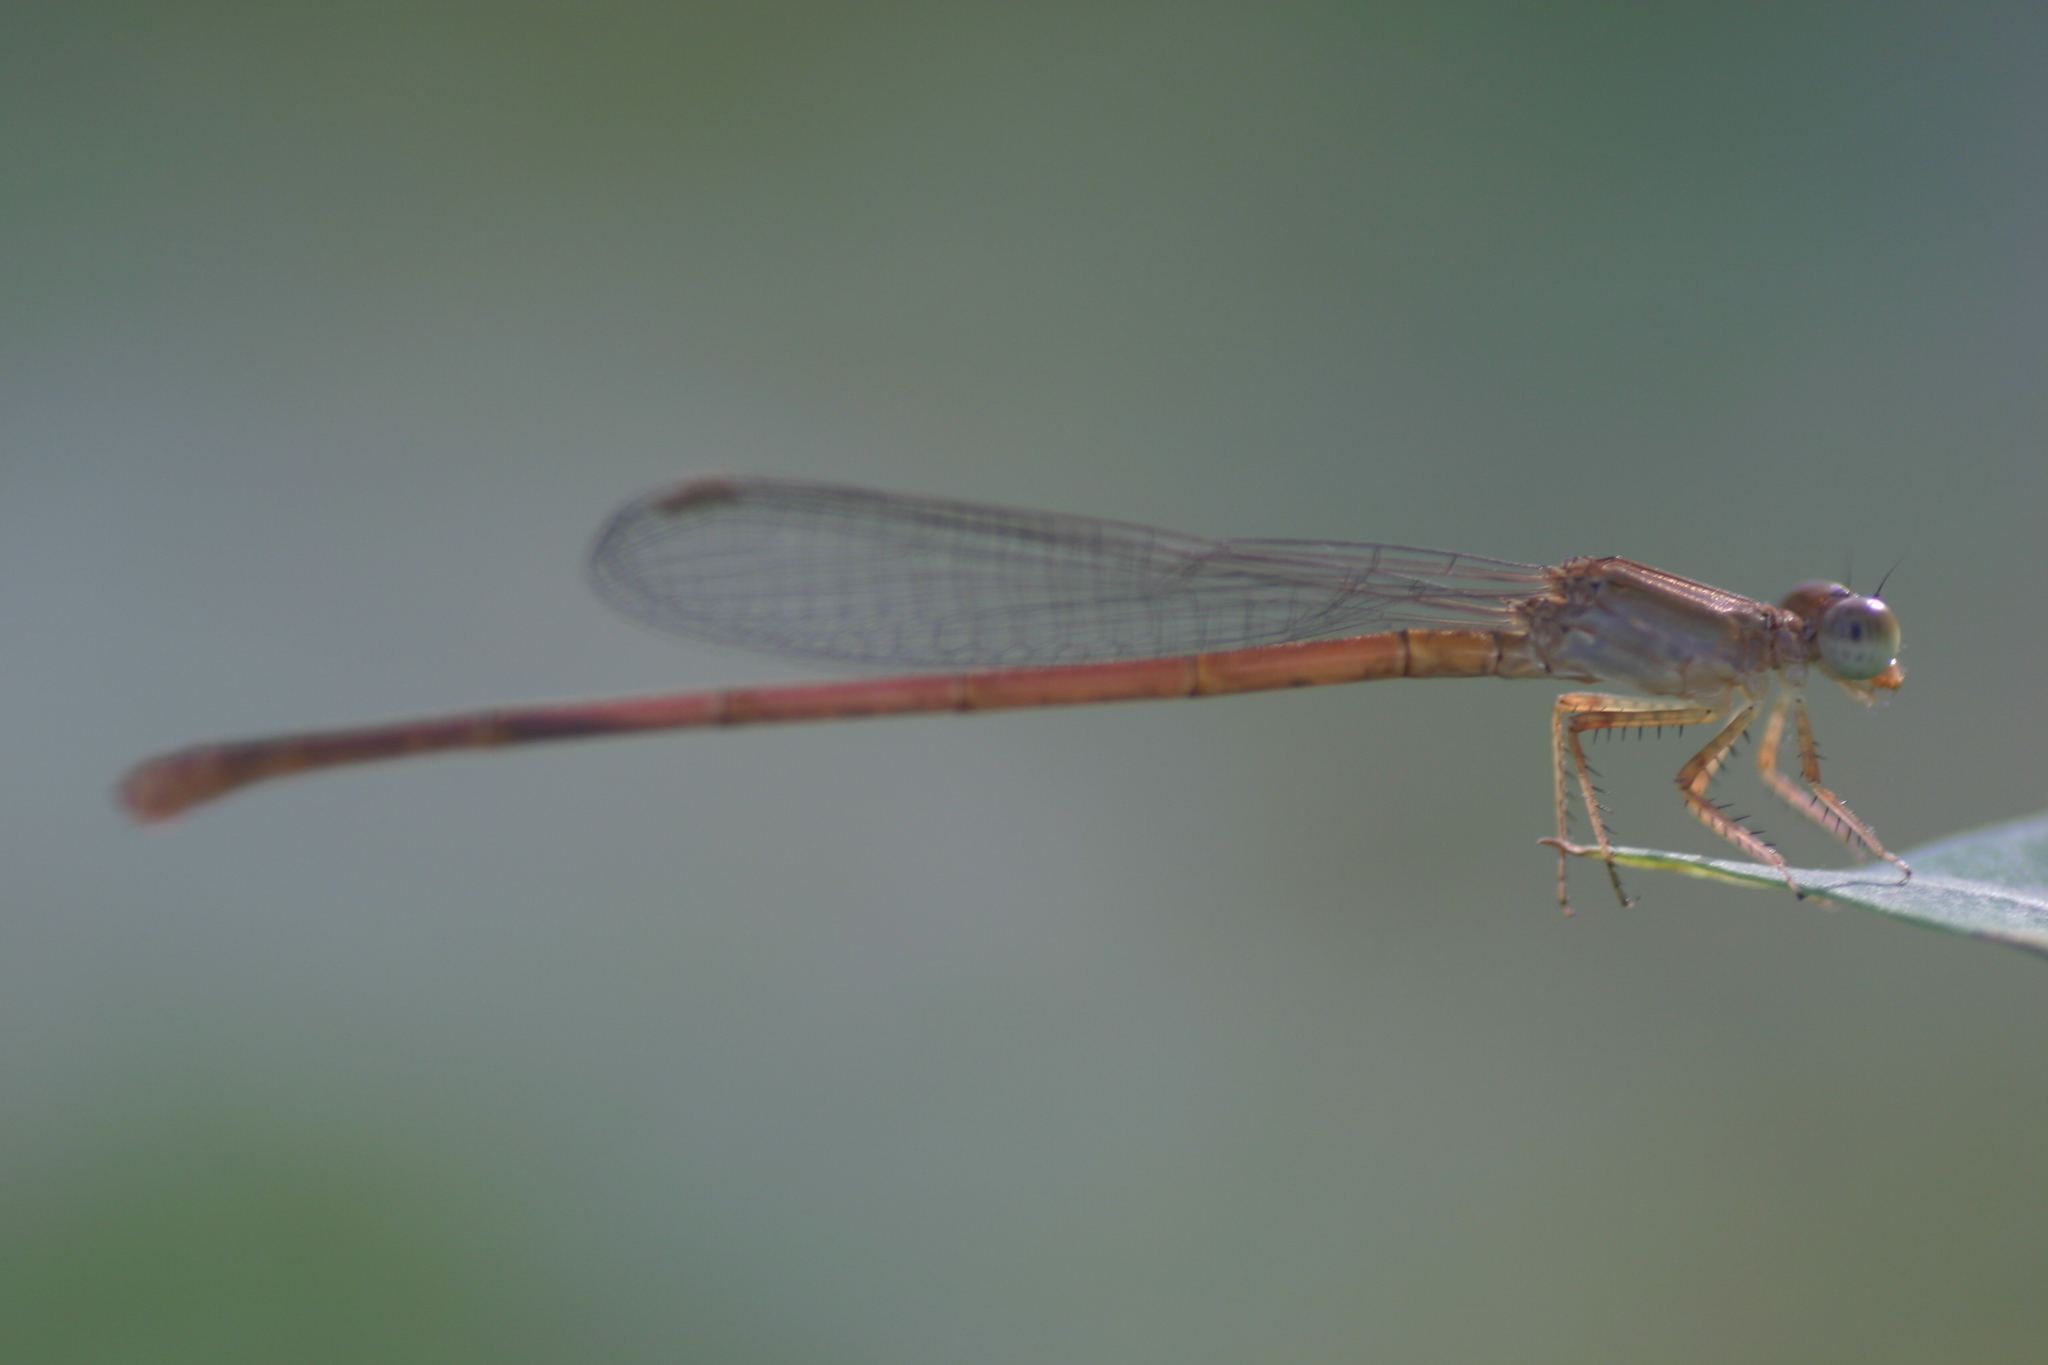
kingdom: Animalia
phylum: Arthropoda
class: Insecta
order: Odonata
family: Coenagrionidae
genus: Ceriagrion
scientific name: Ceriagrion olivaceum
